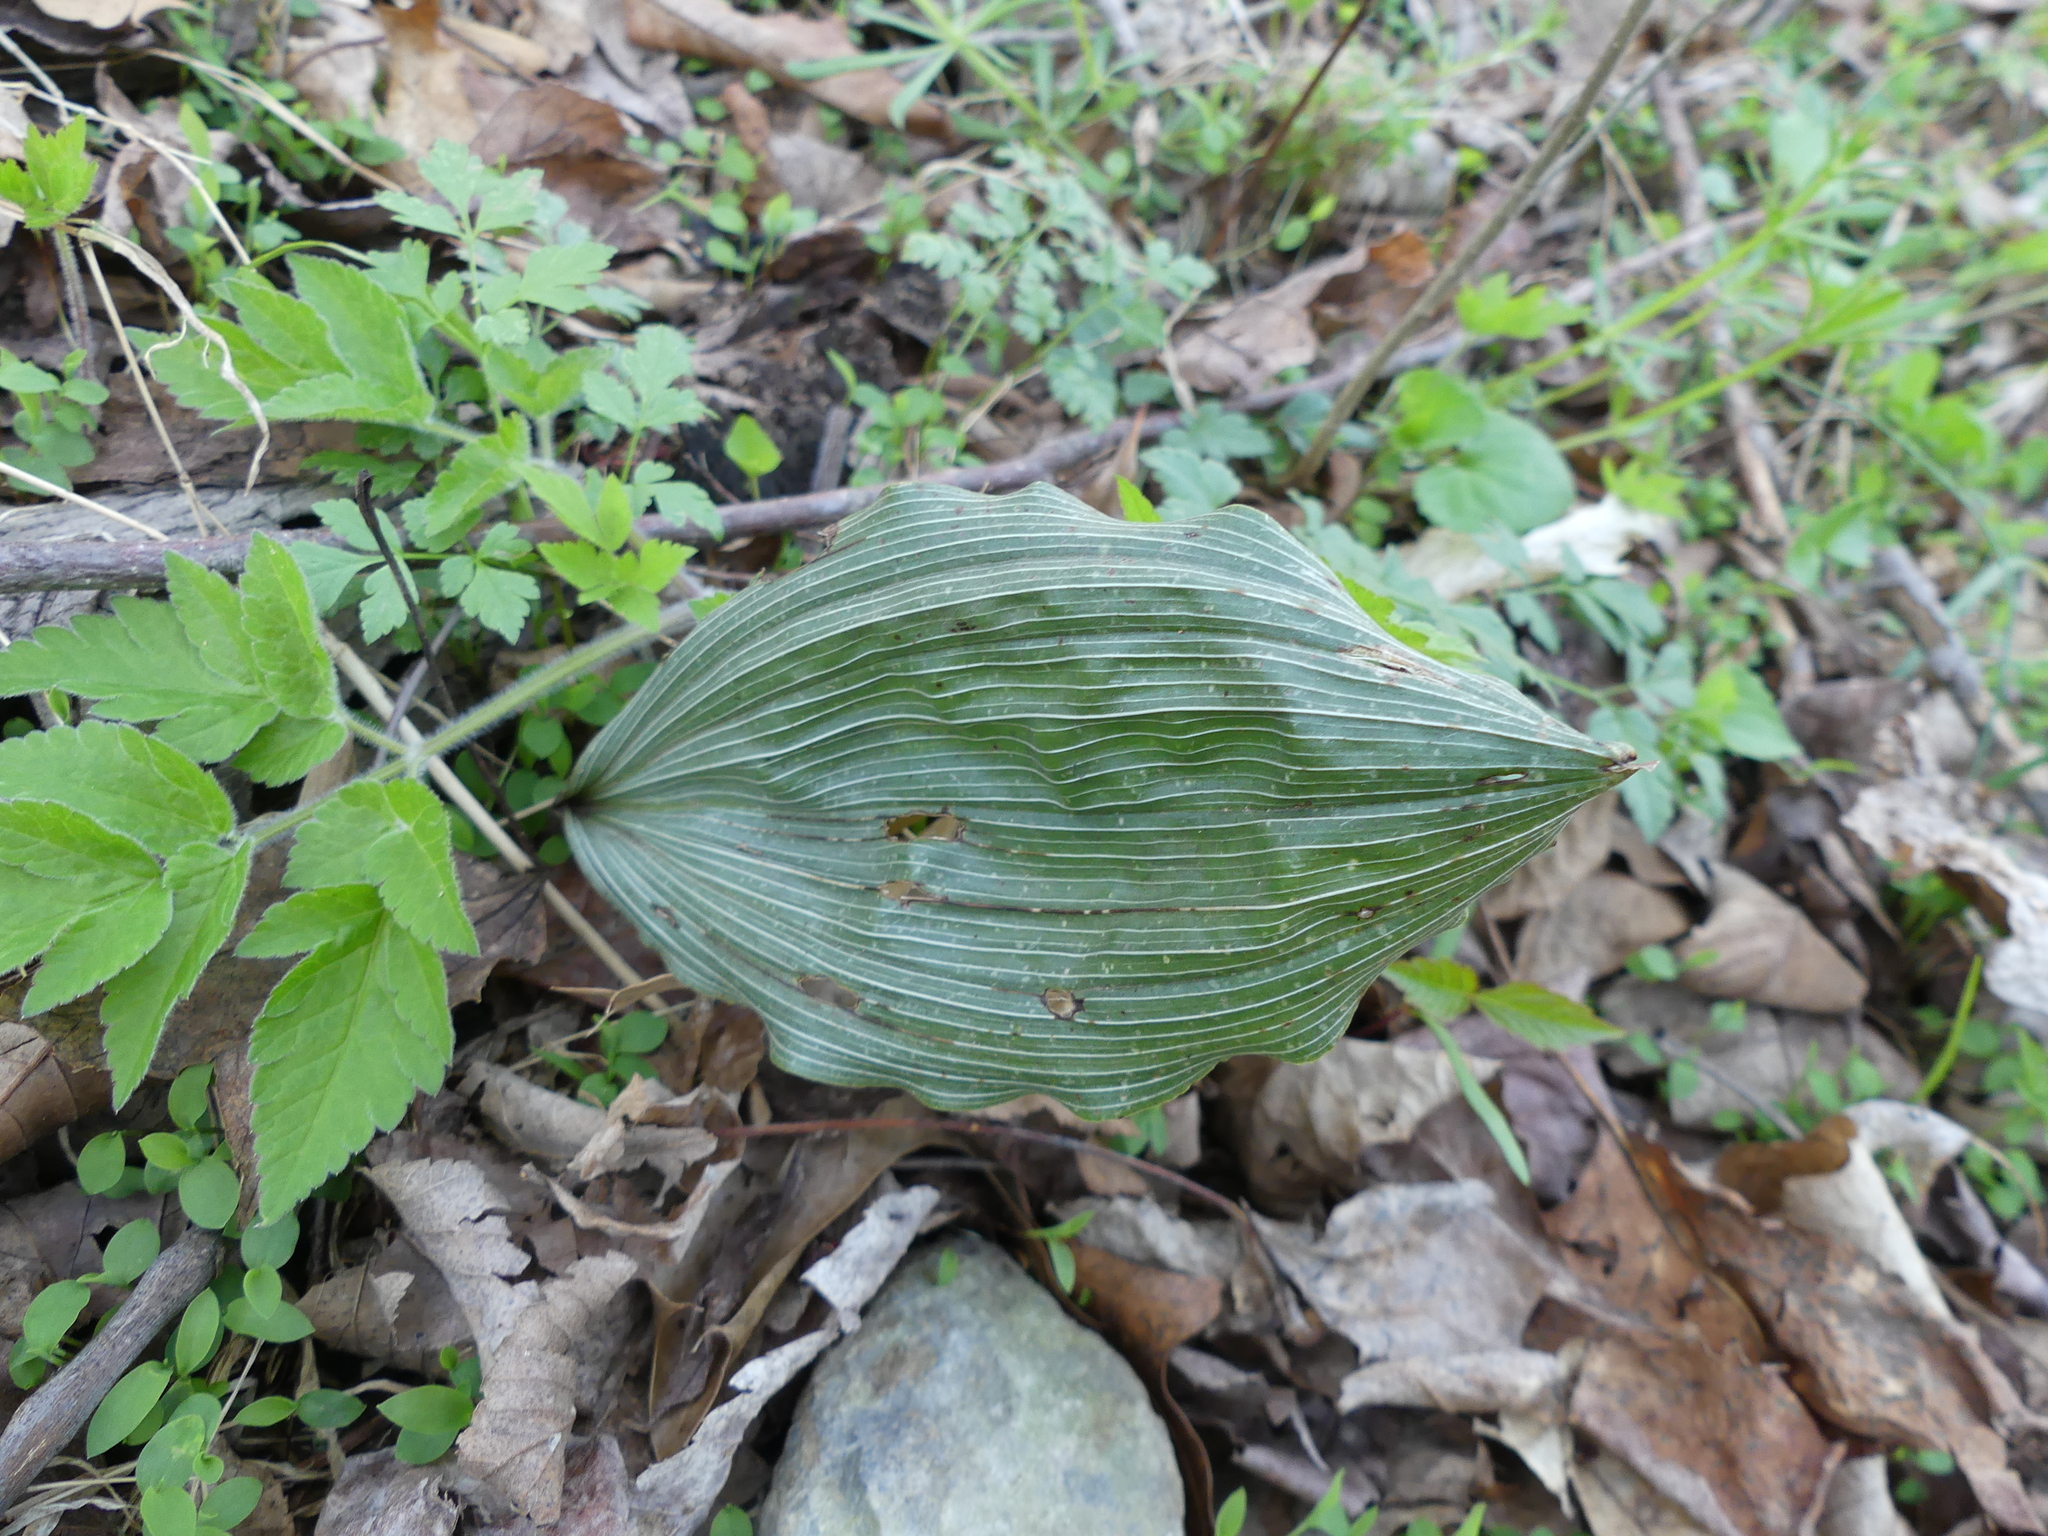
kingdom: Plantae
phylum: Tracheophyta
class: Liliopsida
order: Asparagales
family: Orchidaceae
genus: Aplectrum
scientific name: Aplectrum hyemale
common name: Adam-and-eve
